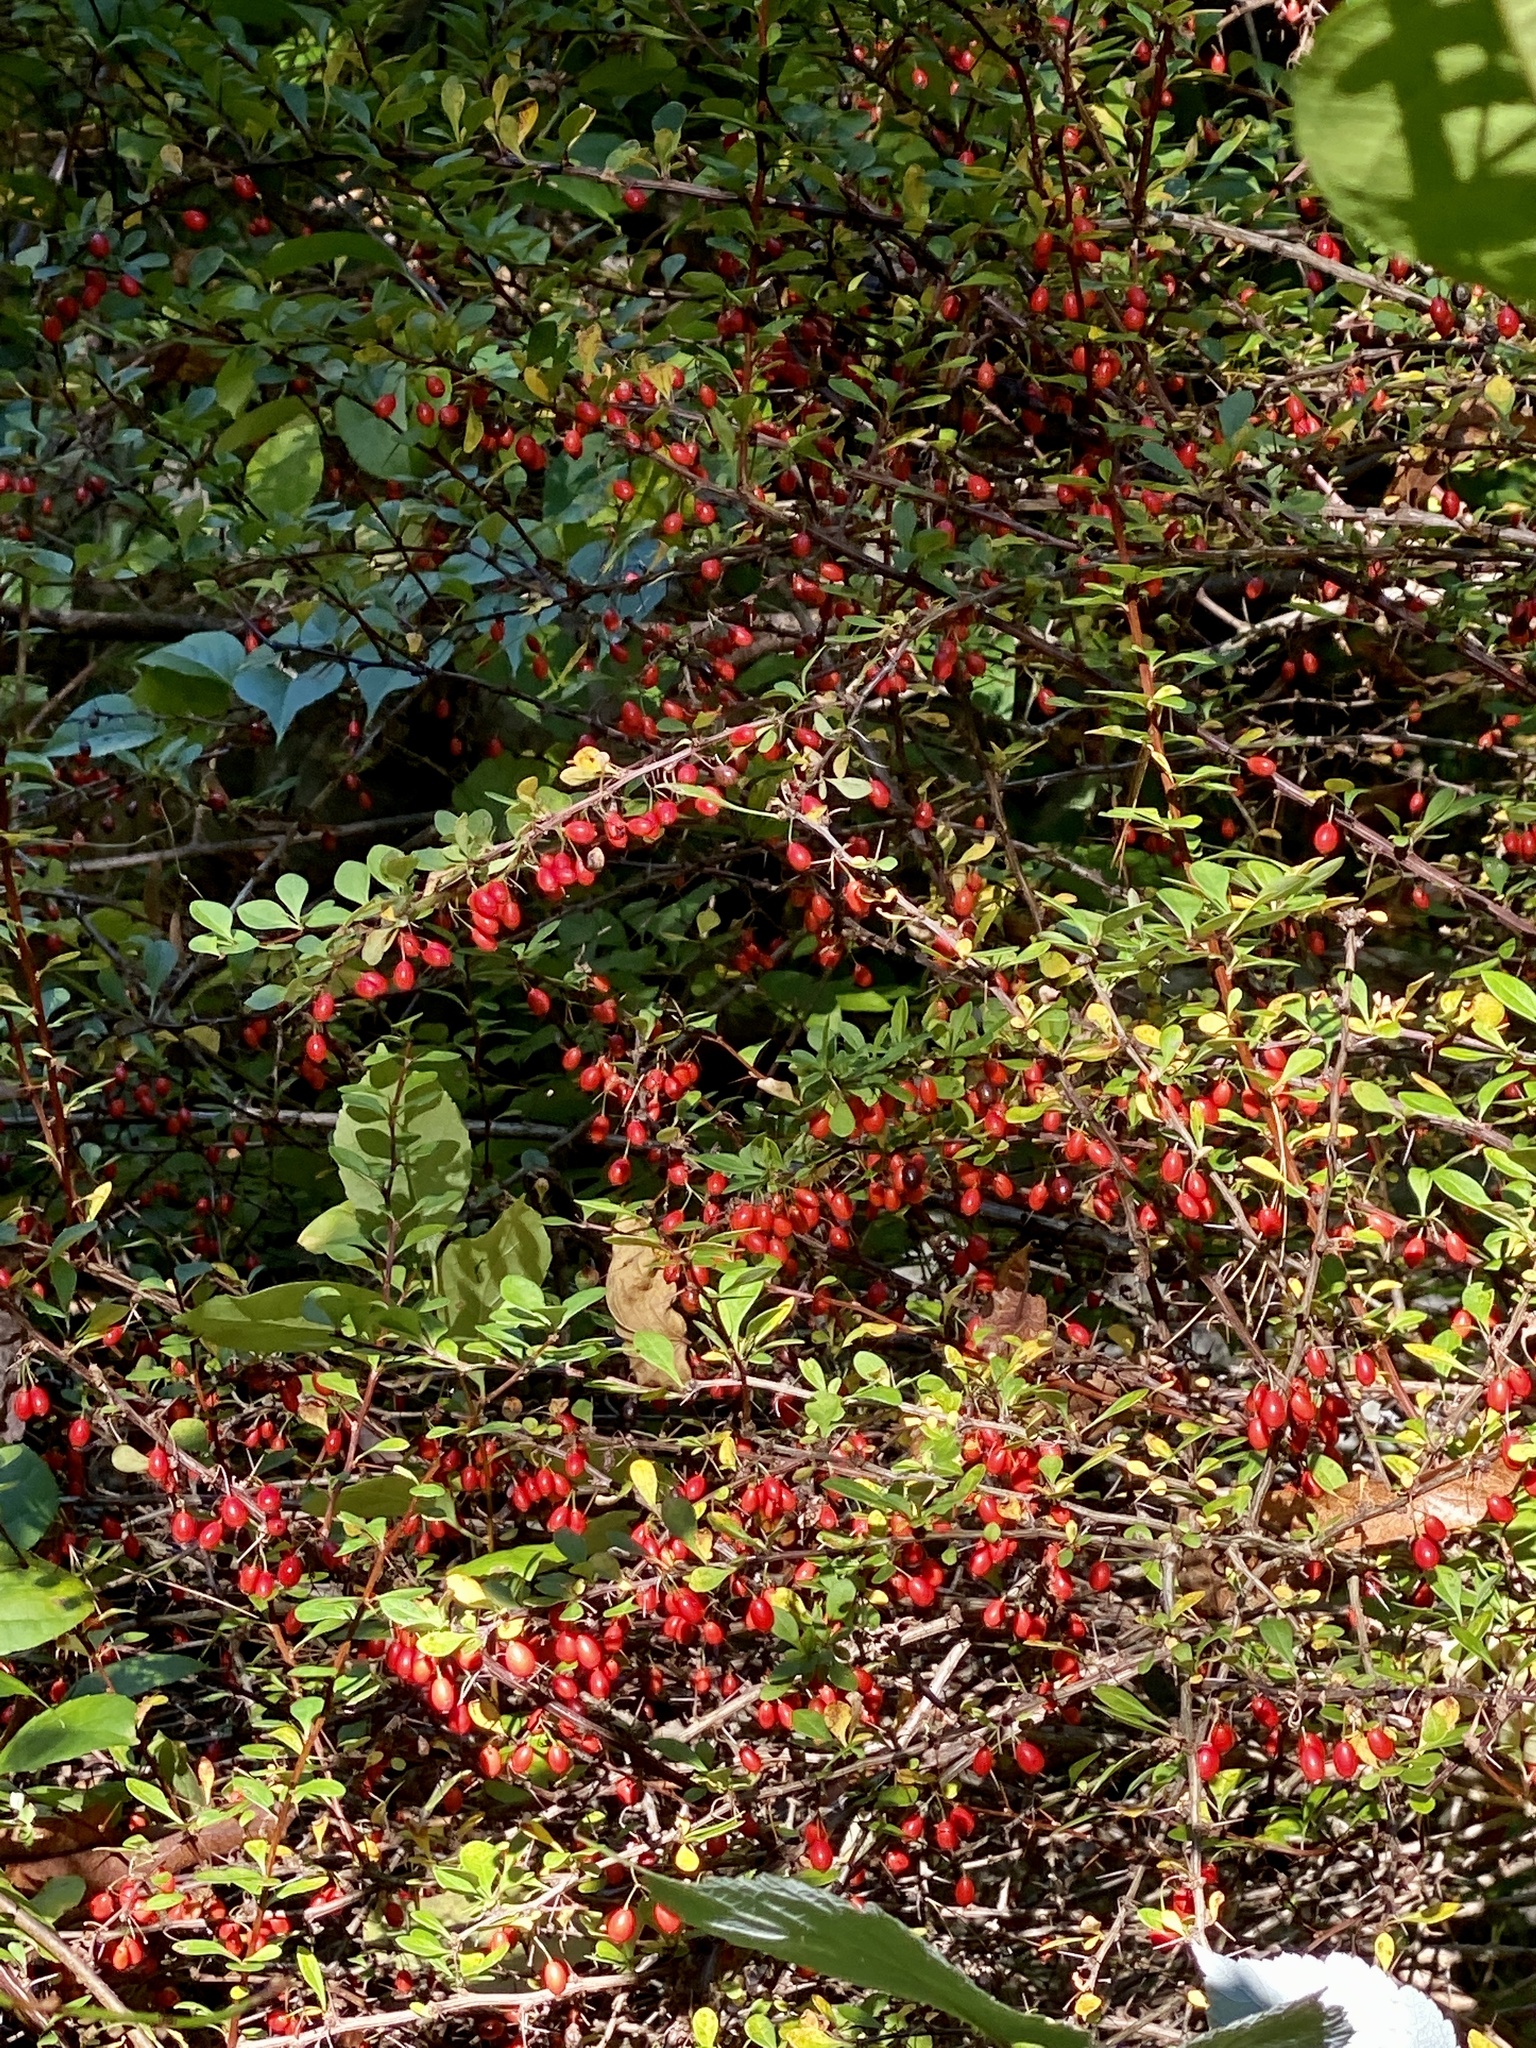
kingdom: Plantae
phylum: Tracheophyta
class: Magnoliopsida
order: Ranunculales
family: Berberidaceae
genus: Berberis
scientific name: Berberis thunbergii
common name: Japanese barberry
